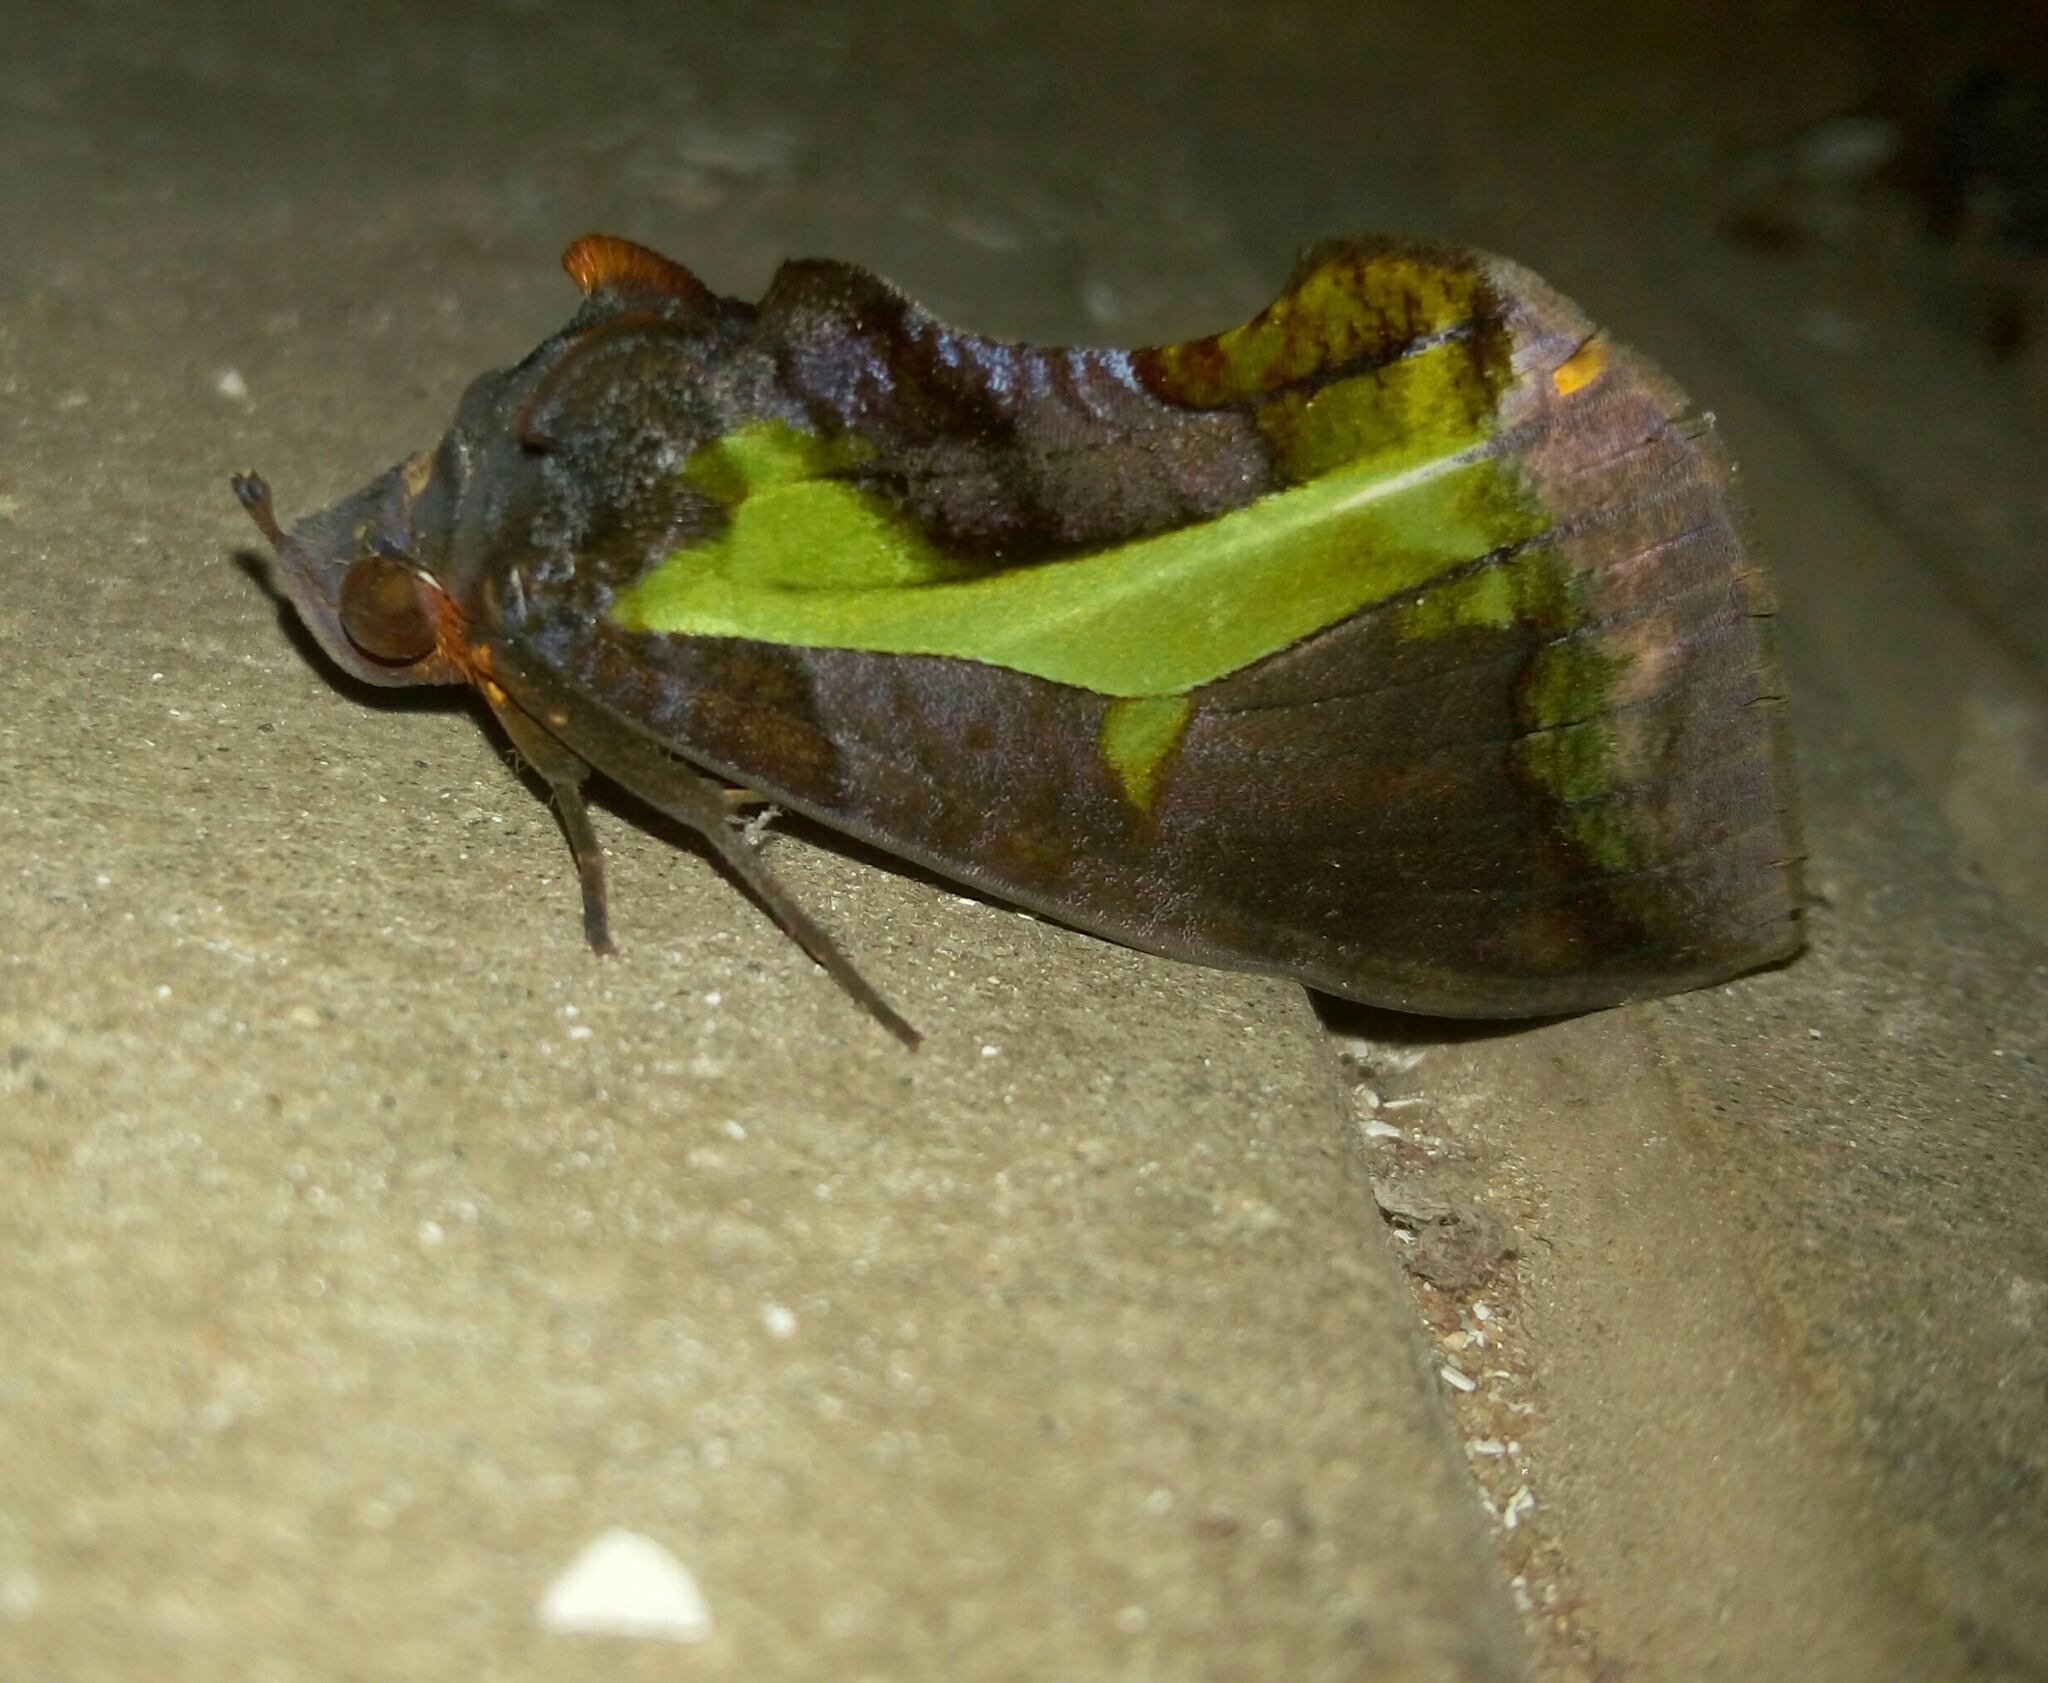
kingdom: Animalia
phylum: Arthropoda
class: Insecta
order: Lepidoptera
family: Erebidae
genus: Eudocima
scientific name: Eudocima homaena
